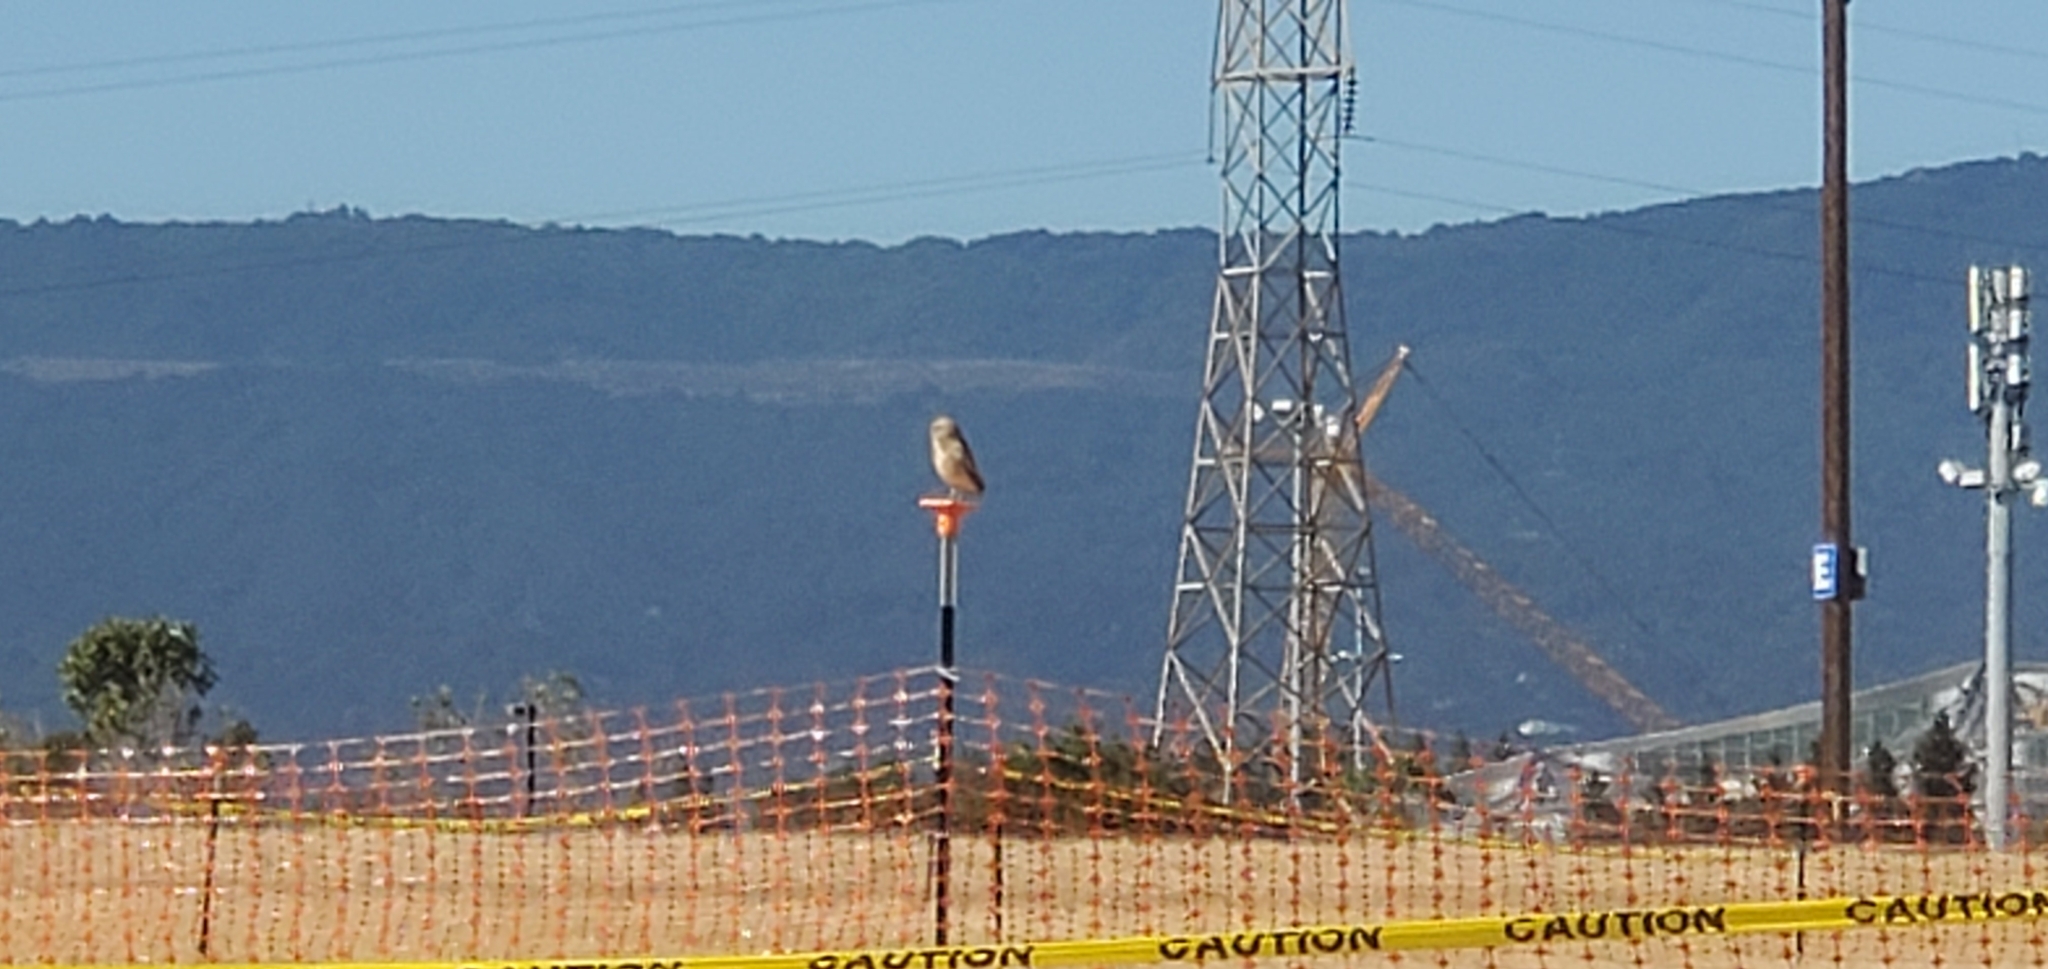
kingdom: Animalia
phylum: Chordata
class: Aves
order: Strigiformes
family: Strigidae
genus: Athene
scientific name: Athene cunicularia
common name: Burrowing owl
